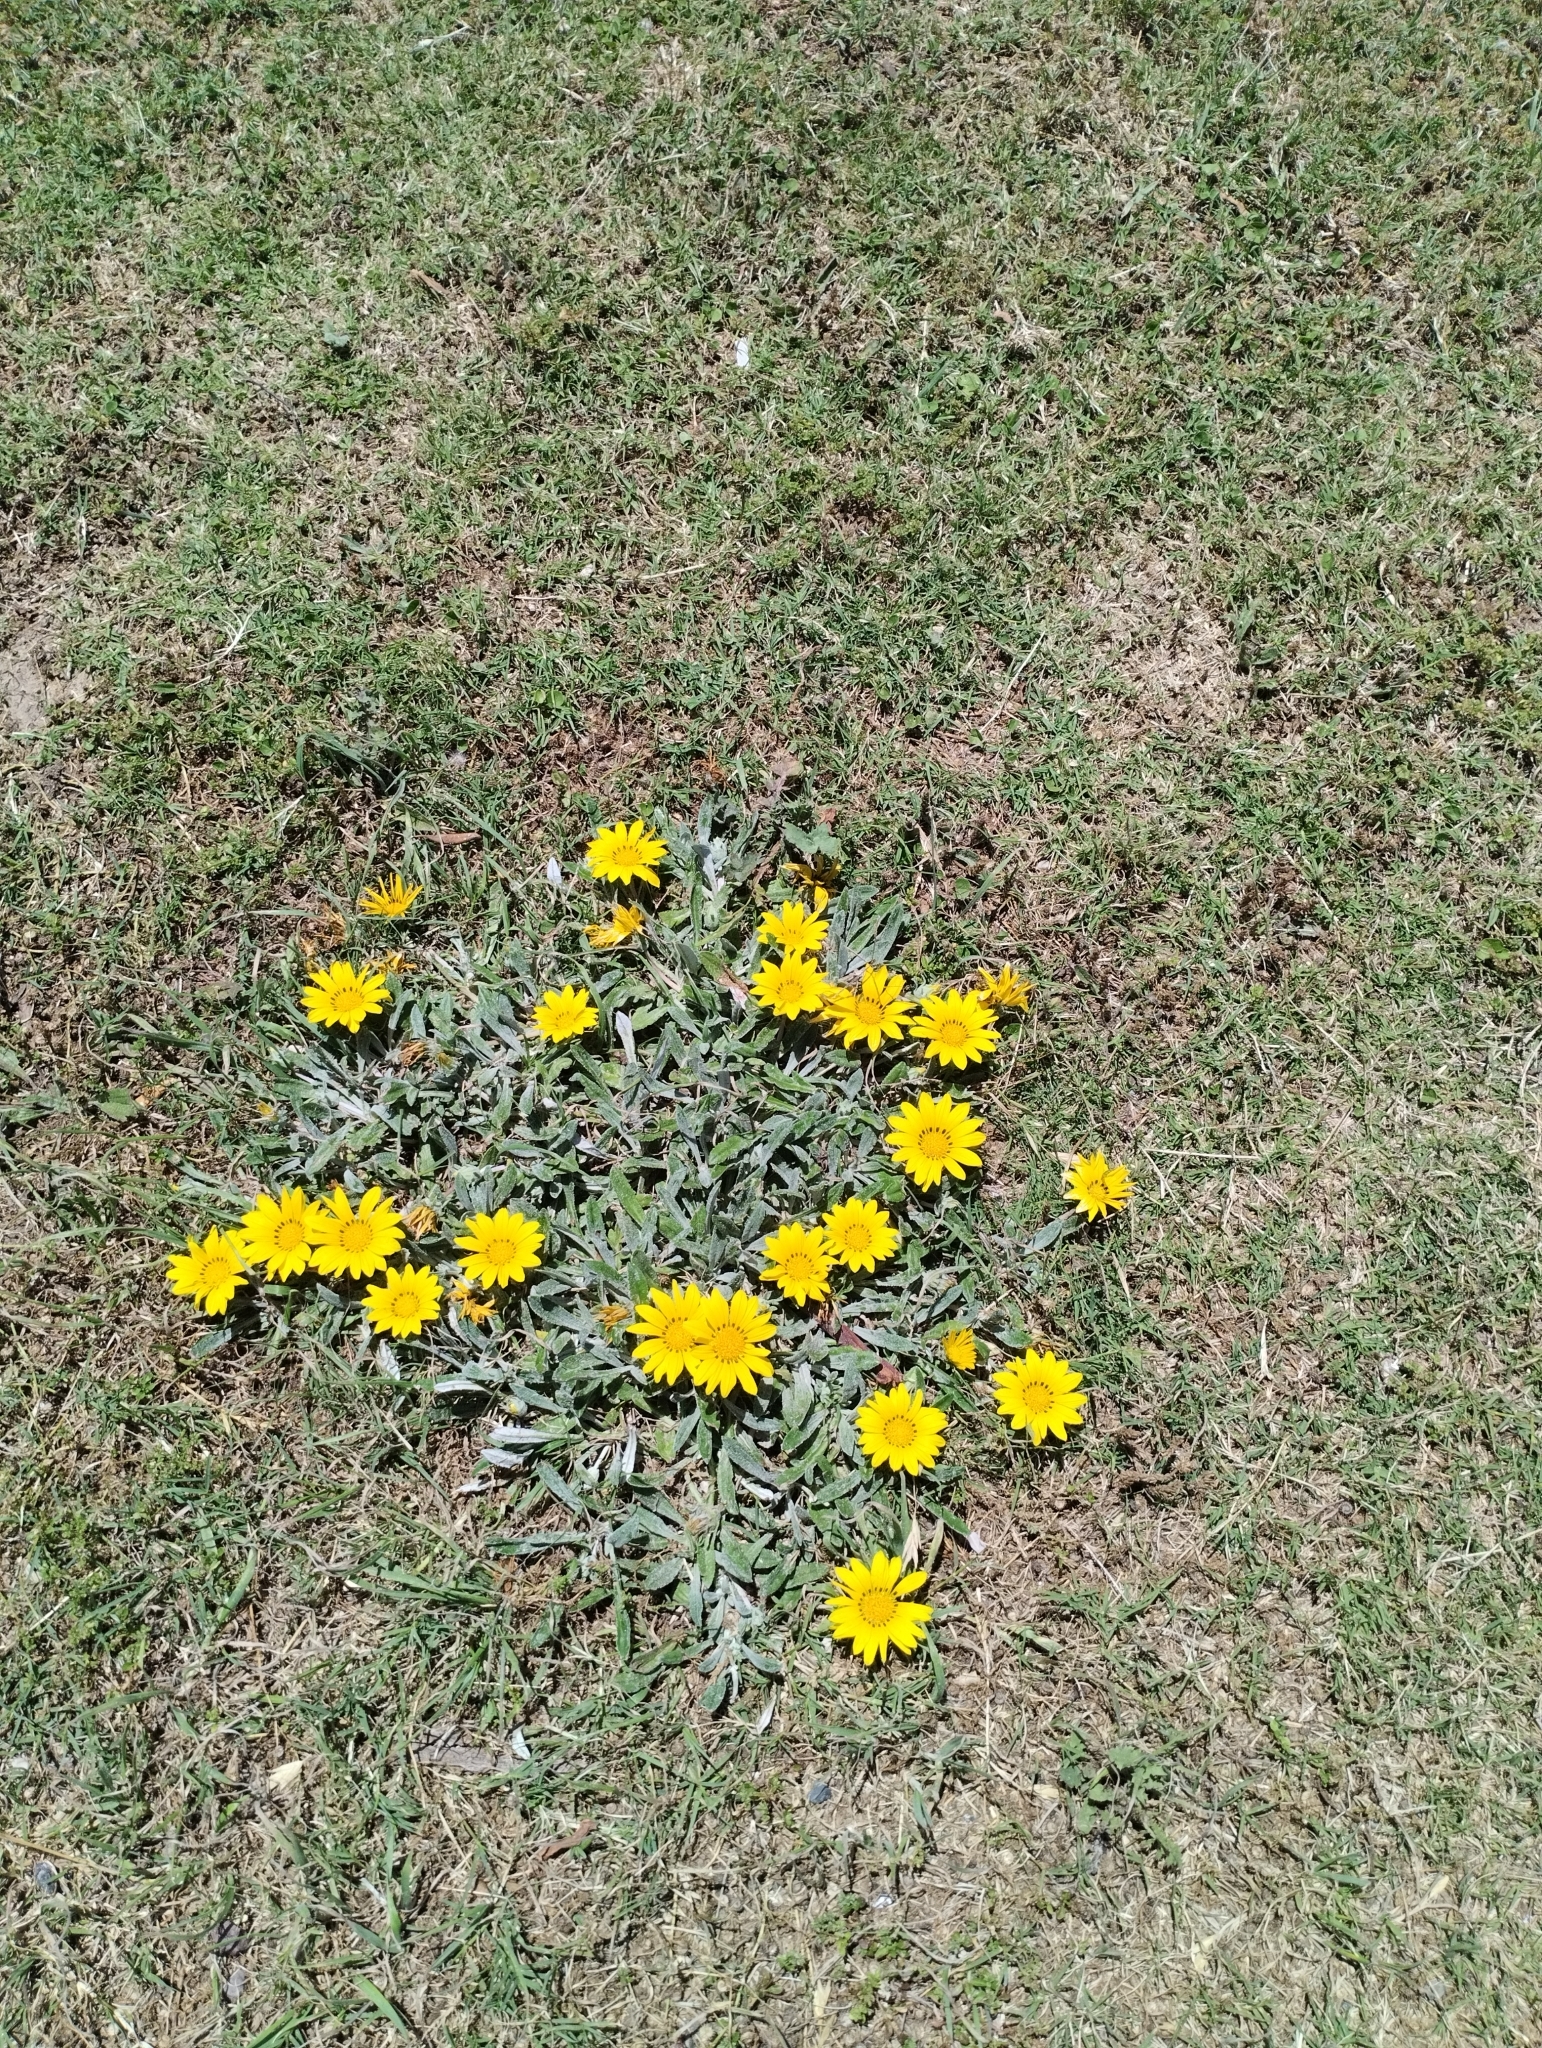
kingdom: Plantae
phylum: Tracheophyta
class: Magnoliopsida
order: Asterales
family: Asteraceae
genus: Gazania
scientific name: Gazania rigens
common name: Treasureflower
